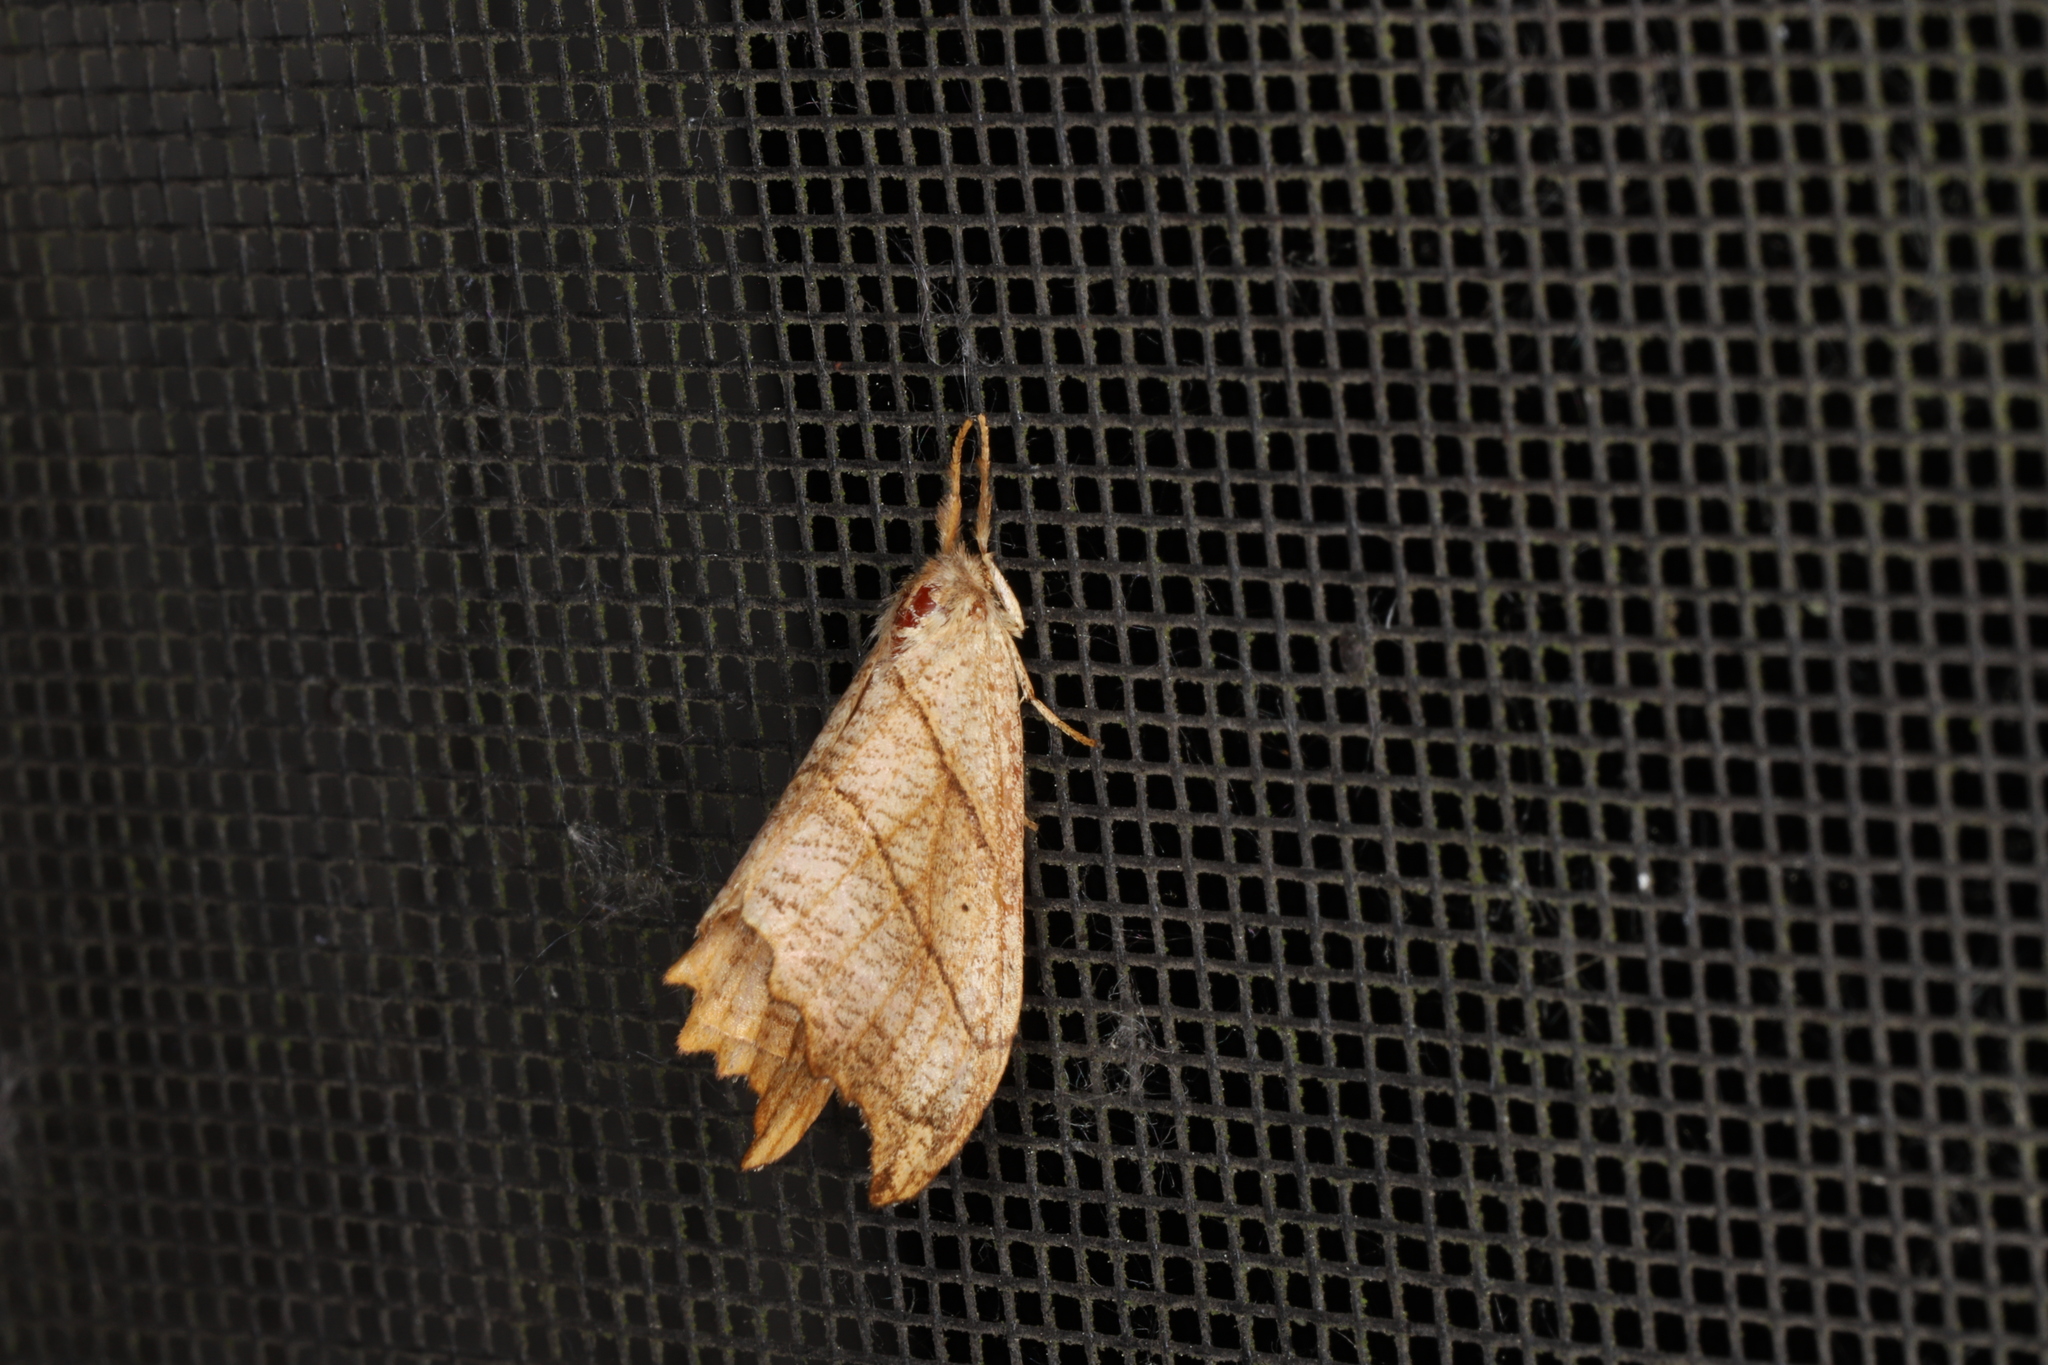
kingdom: Animalia
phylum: Arthropoda
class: Insecta
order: Lepidoptera
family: Drepanidae
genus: Falcaria
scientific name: Falcaria bilineata
